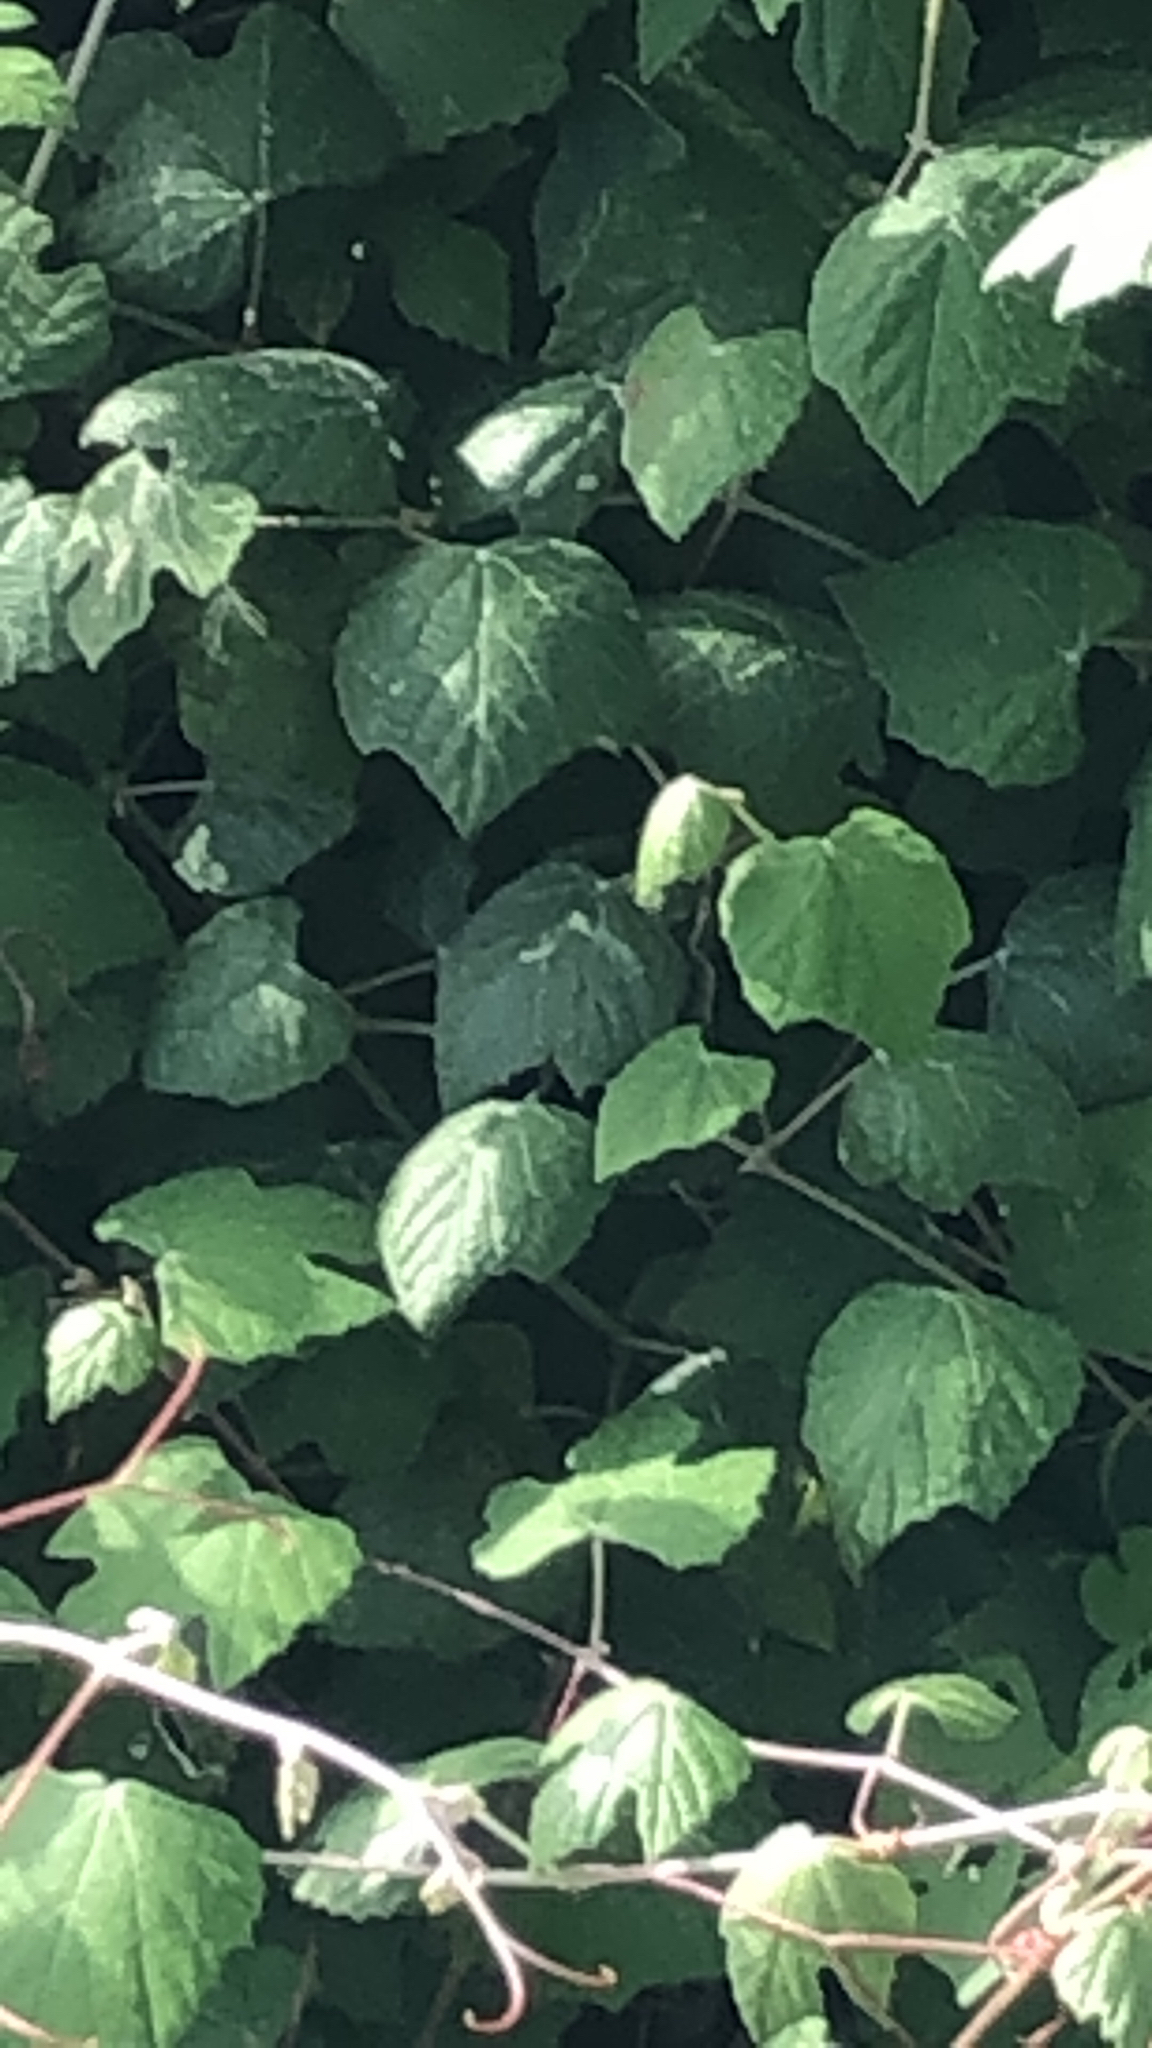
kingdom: Plantae
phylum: Tracheophyta
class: Magnoliopsida
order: Vitales
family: Vitaceae
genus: Vitis
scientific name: Vitis mustangensis
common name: Mustang grape
